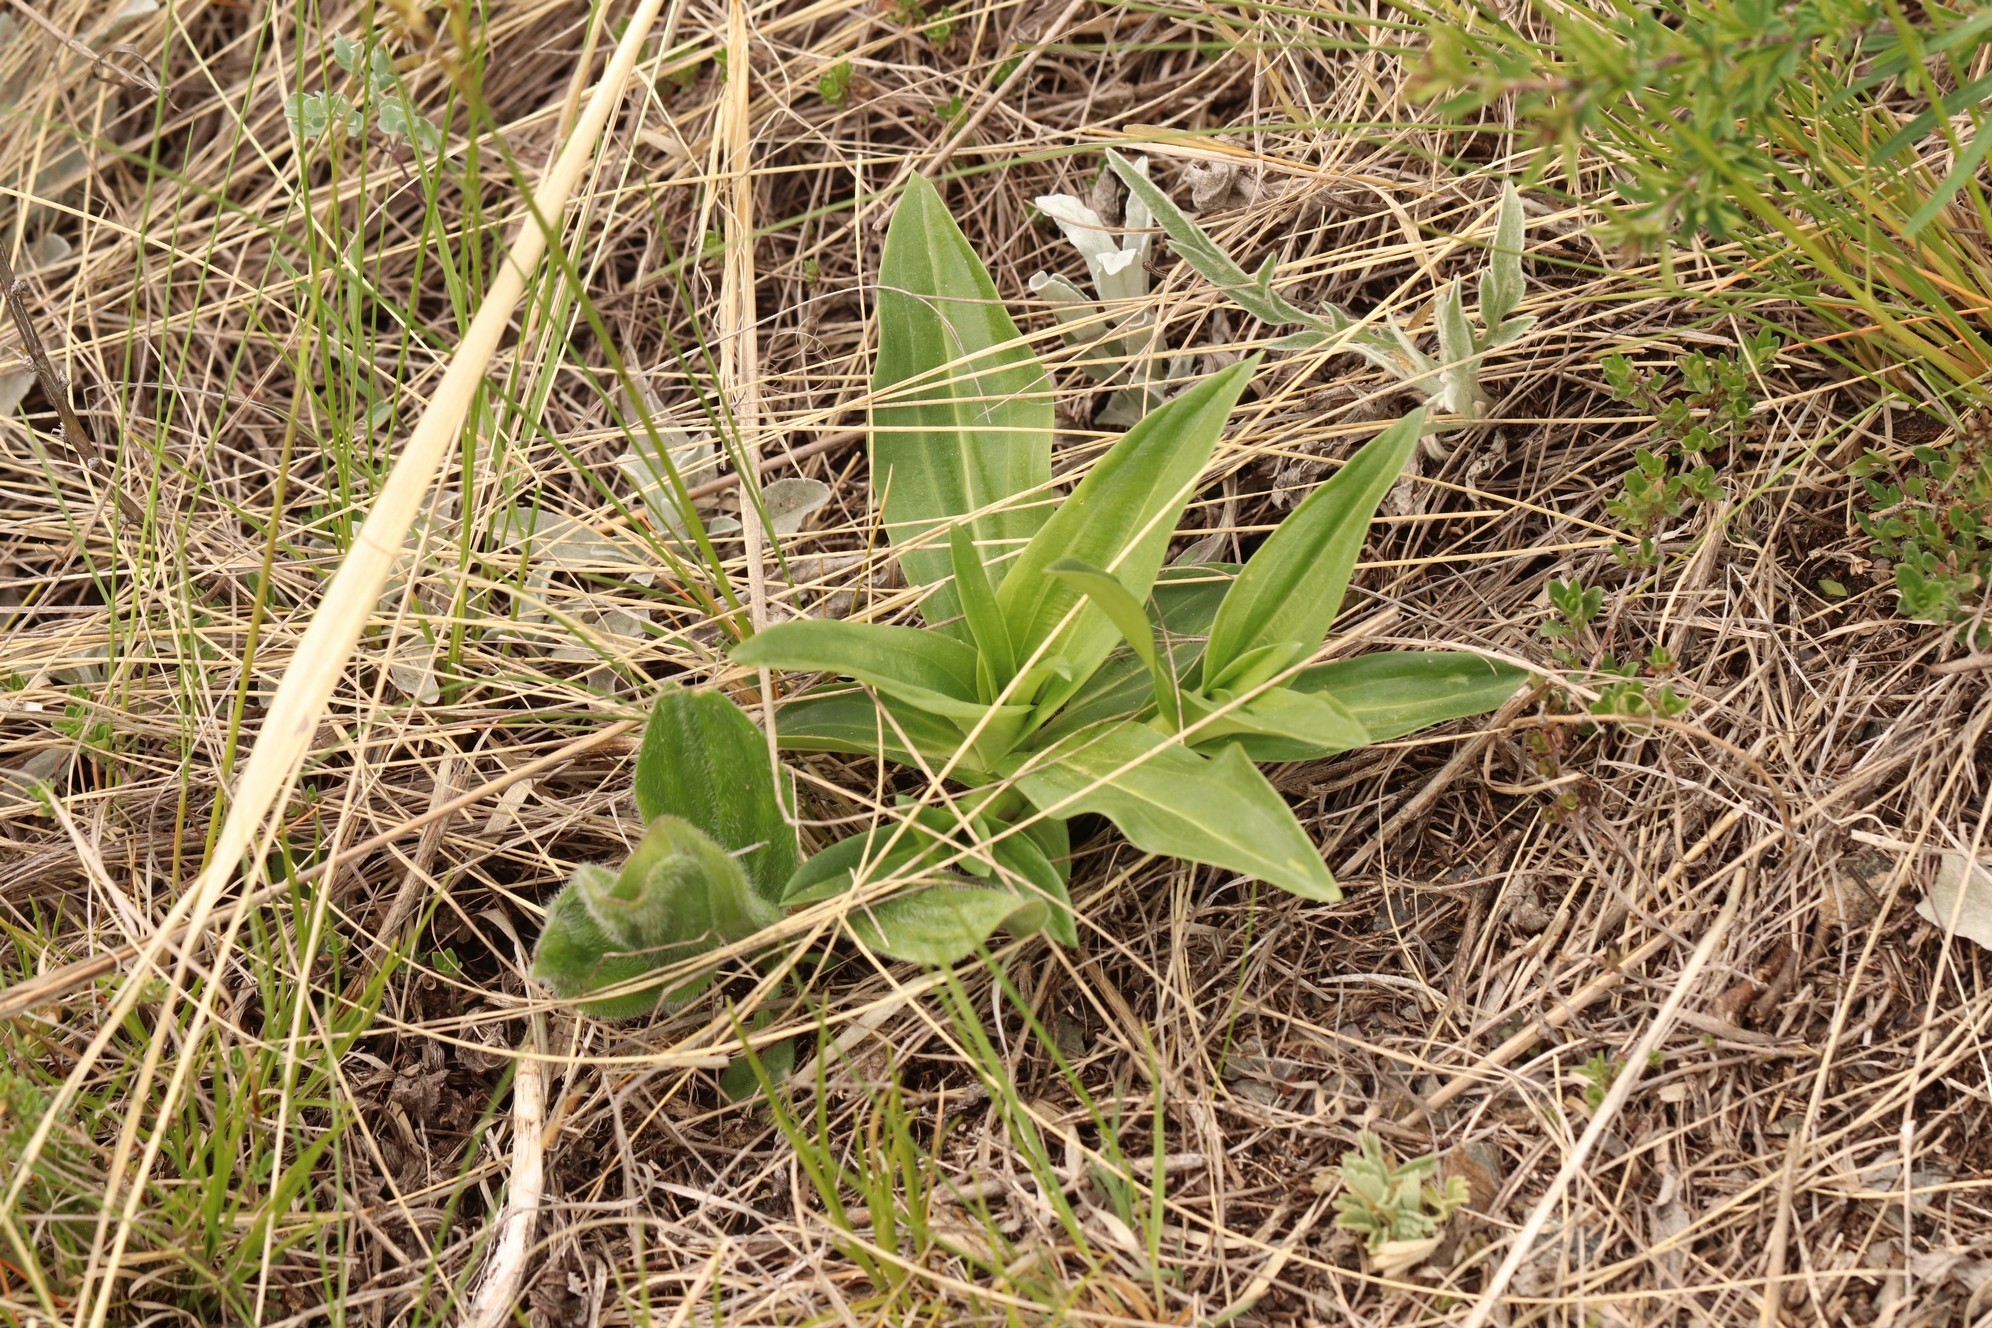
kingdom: Plantae
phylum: Tracheophyta
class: Magnoliopsida
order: Gentianales
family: Gentianaceae
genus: Gentiana
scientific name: Gentiana macrophylla
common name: Large-leaf gentian
